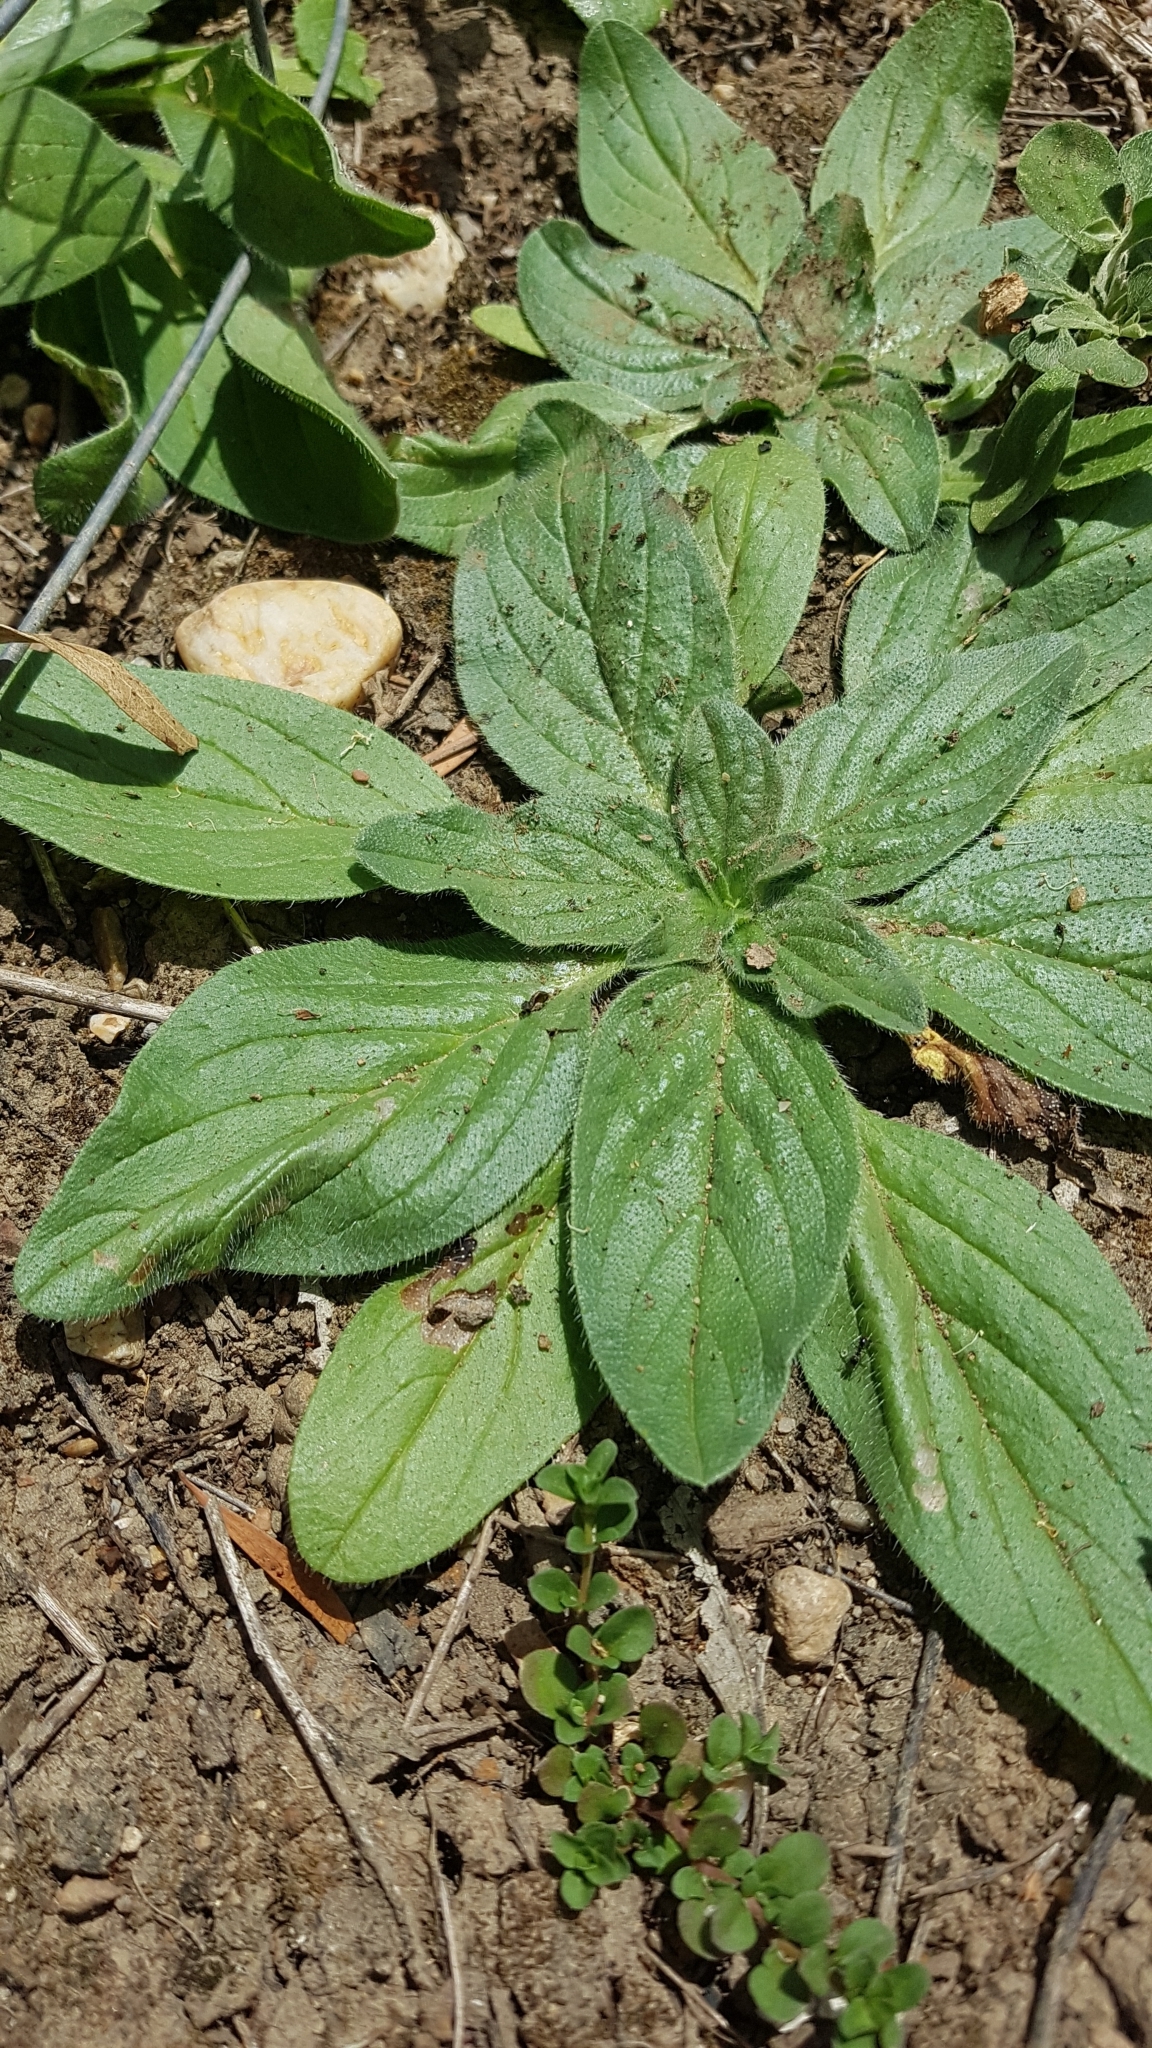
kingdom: Plantae
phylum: Tracheophyta
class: Magnoliopsida
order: Boraginales
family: Boraginaceae
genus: Echium
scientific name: Echium plantagineum
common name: Purple viper's-bugloss
